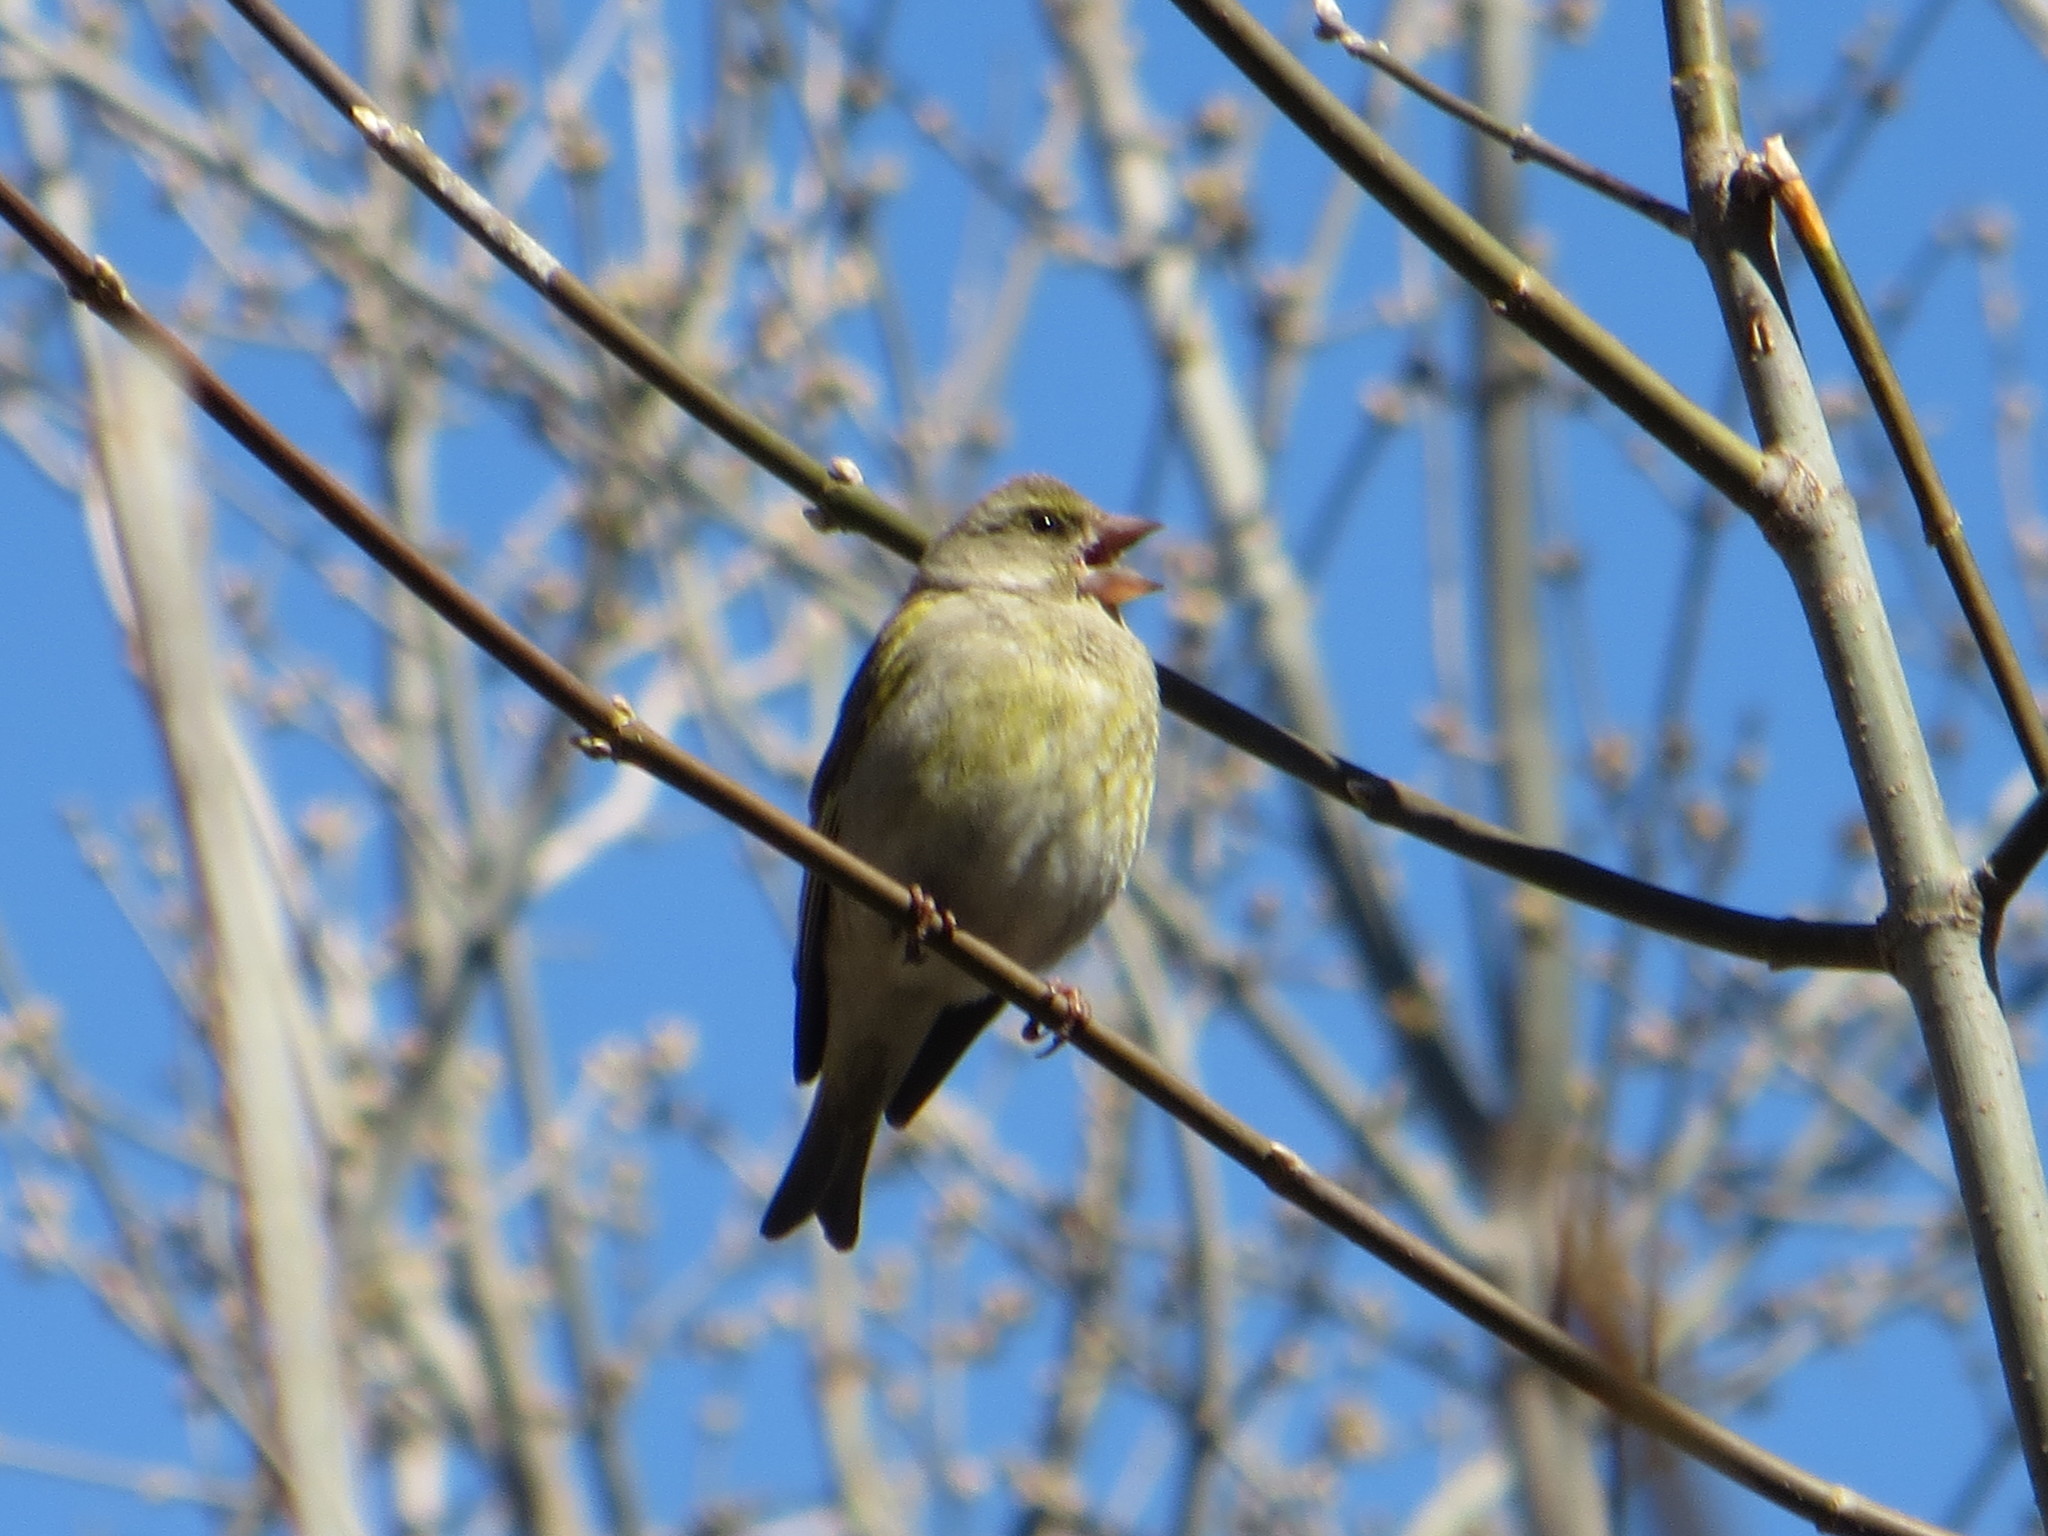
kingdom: Plantae
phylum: Tracheophyta
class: Liliopsida
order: Poales
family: Poaceae
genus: Chloris
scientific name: Chloris chloris
